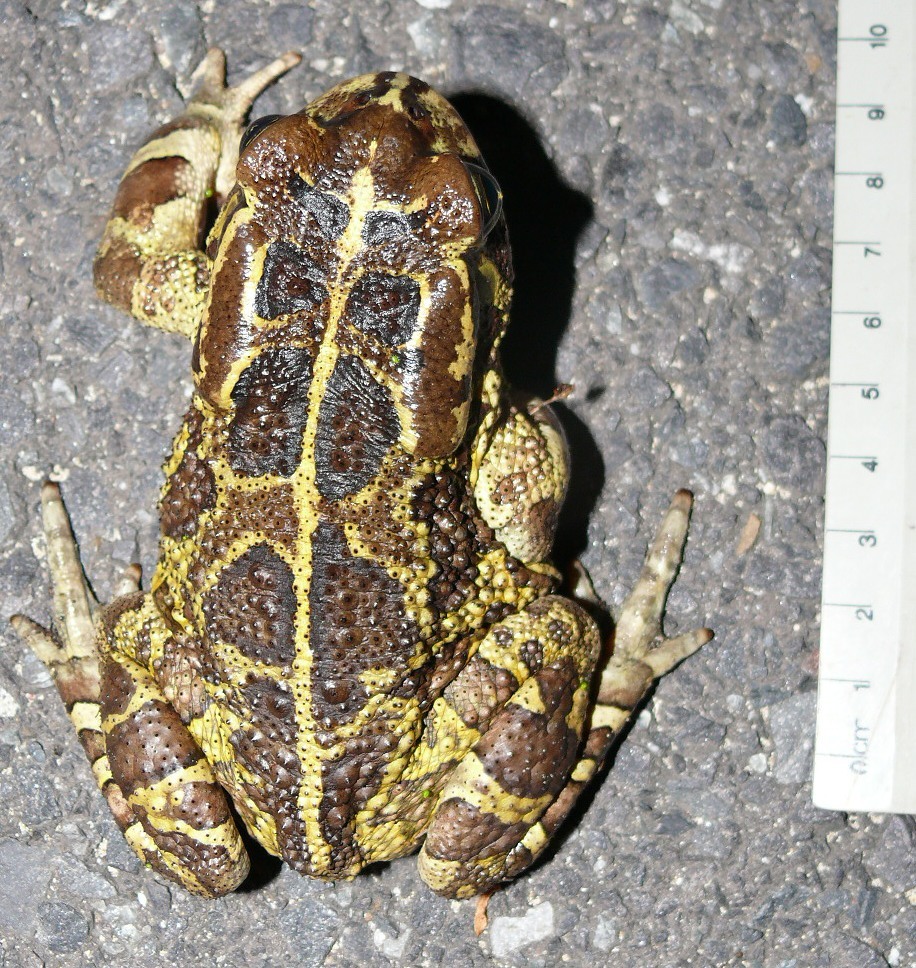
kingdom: Animalia
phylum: Chordata
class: Amphibia
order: Anura
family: Bufonidae
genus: Sclerophrys
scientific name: Sclerophrys pantherina
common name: Panther toad
